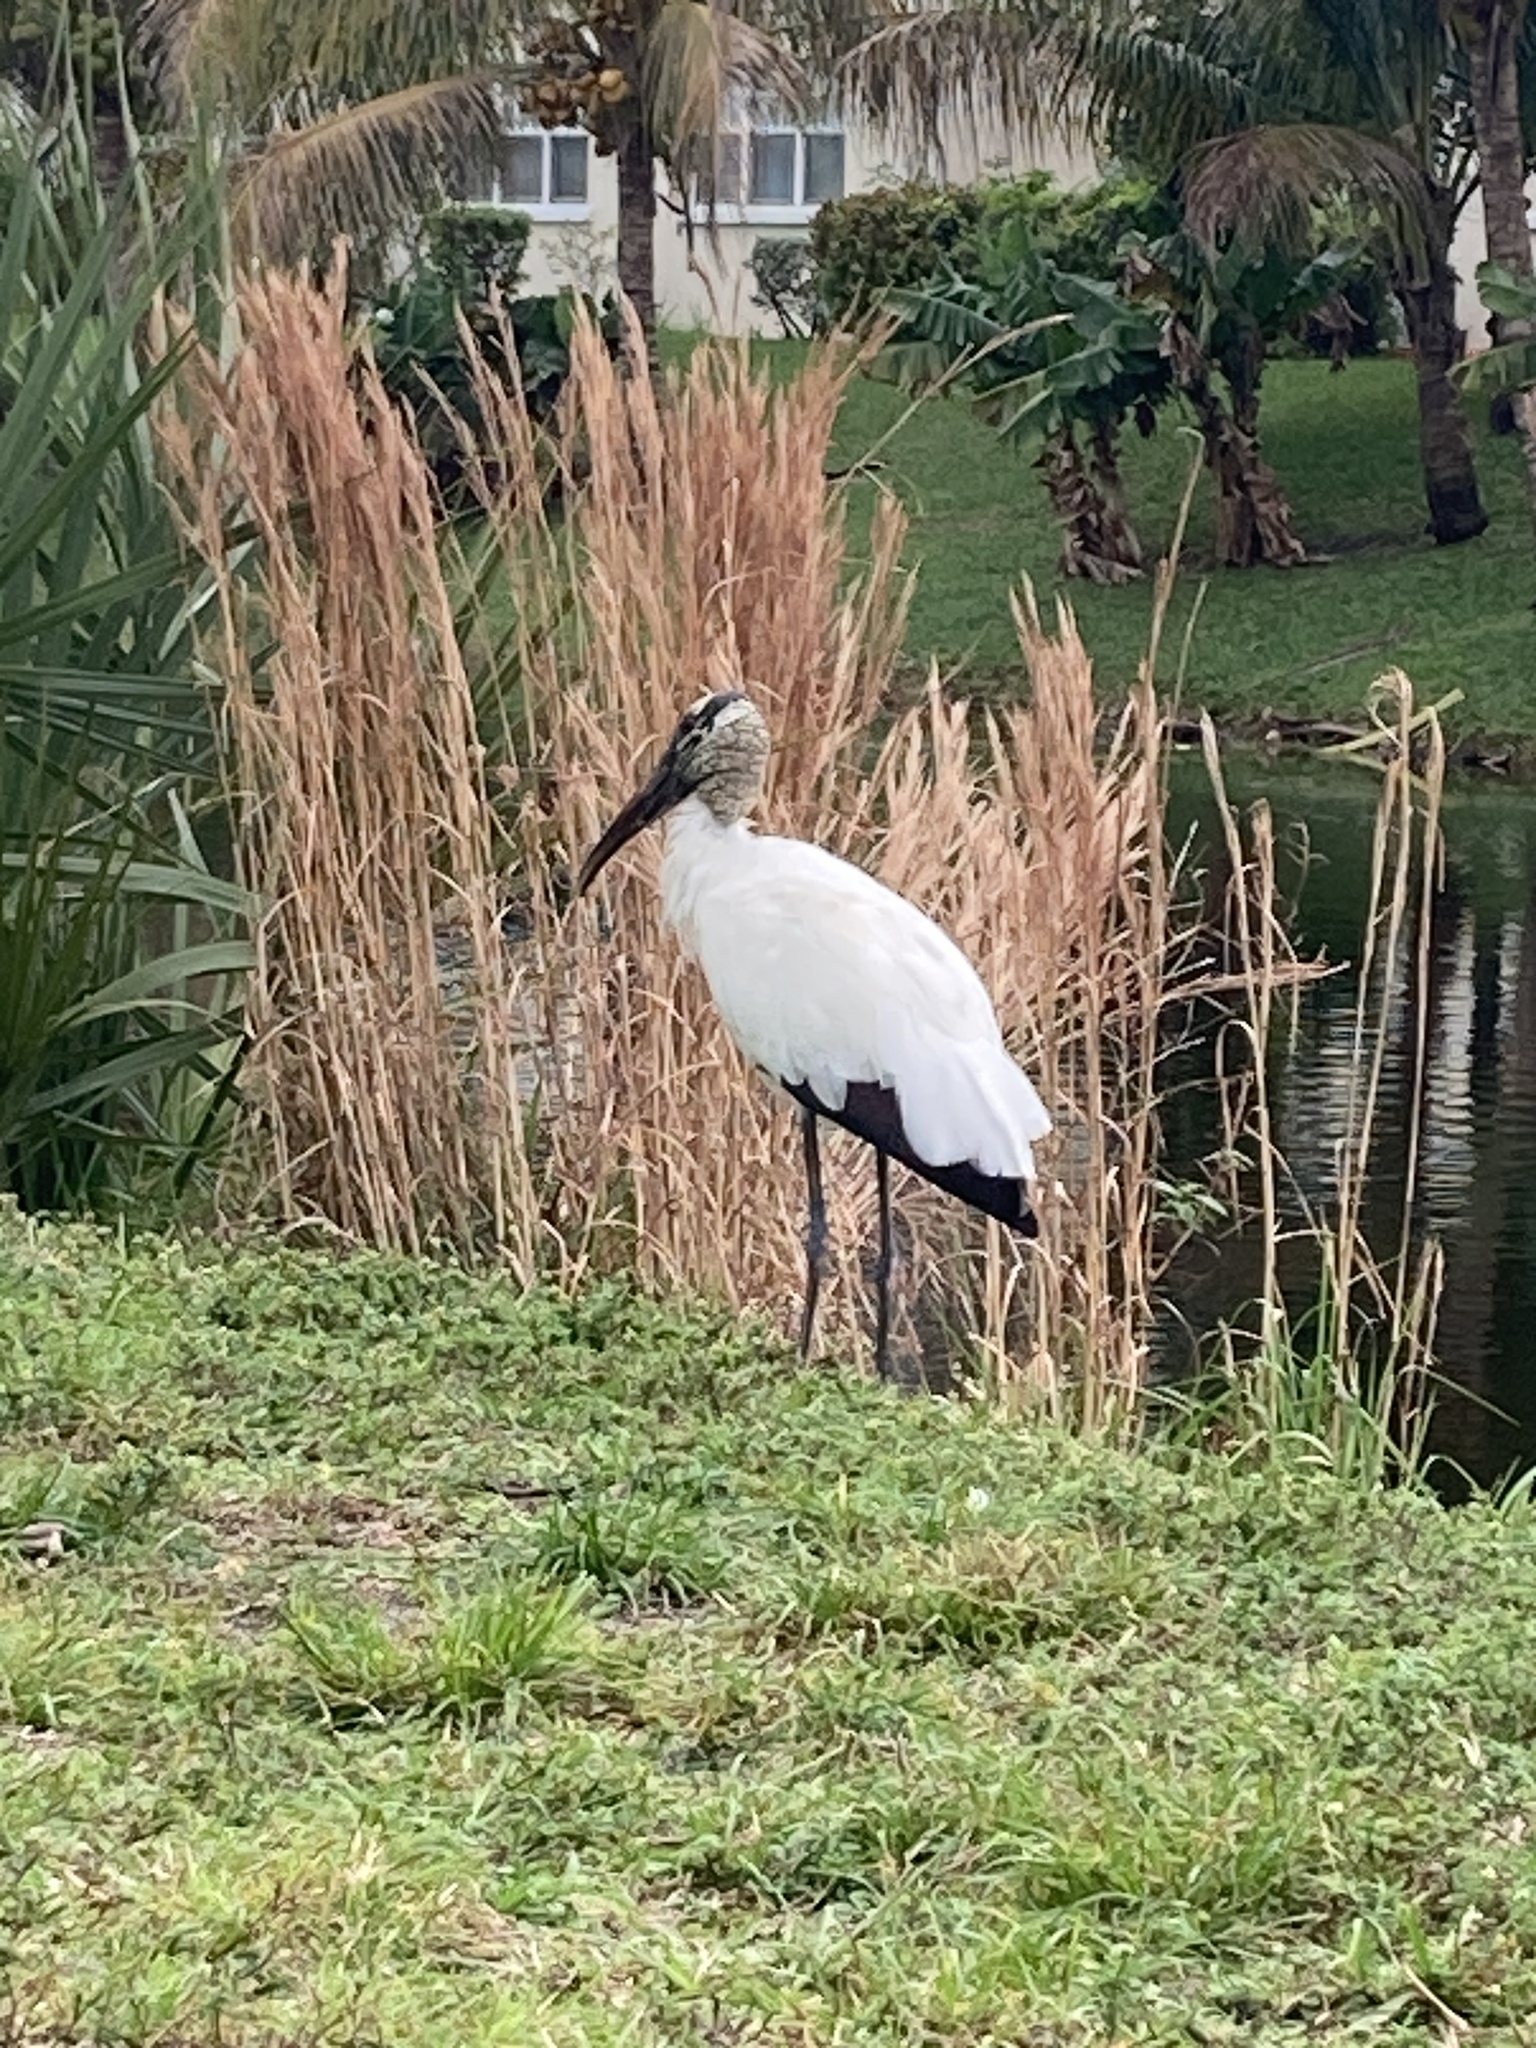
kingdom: Animalia
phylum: Chordata
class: Aves
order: Ciconiiformes
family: Ciconiidae
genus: Mycteria
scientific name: Mycteria americana
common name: Wood stork
